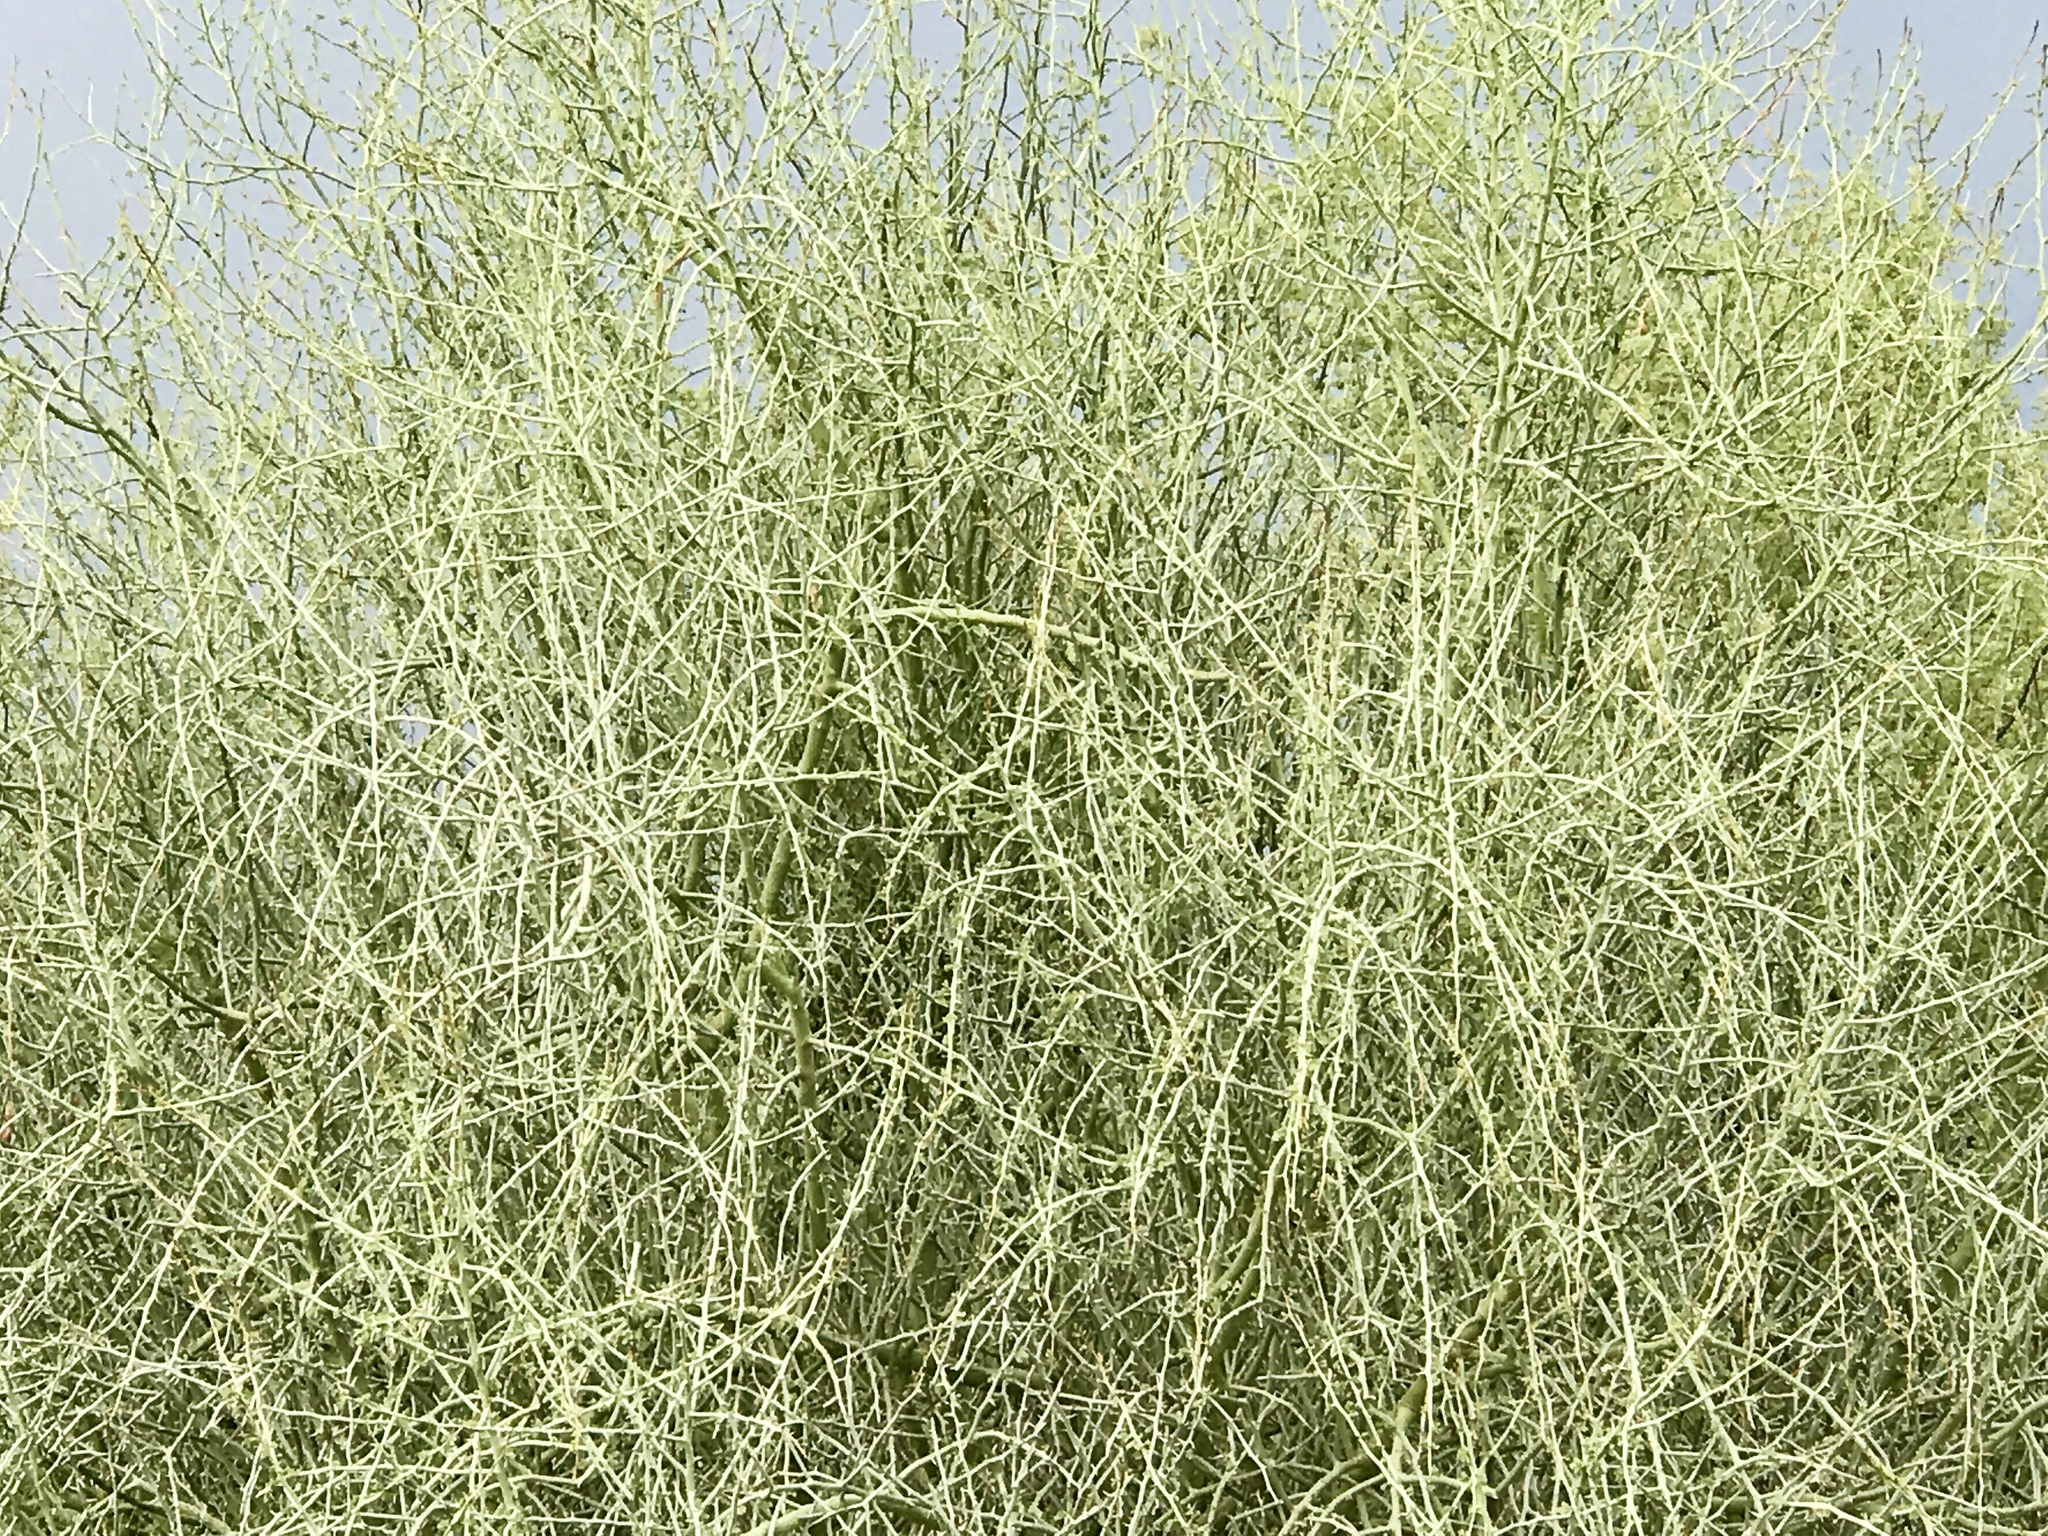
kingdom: Plantae
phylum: Tracheophyta
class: Magnoliopsida
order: Fabales
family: Fabaceae
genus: Parkinsonia
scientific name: Parkinsonia florida
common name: Blue paloverde
